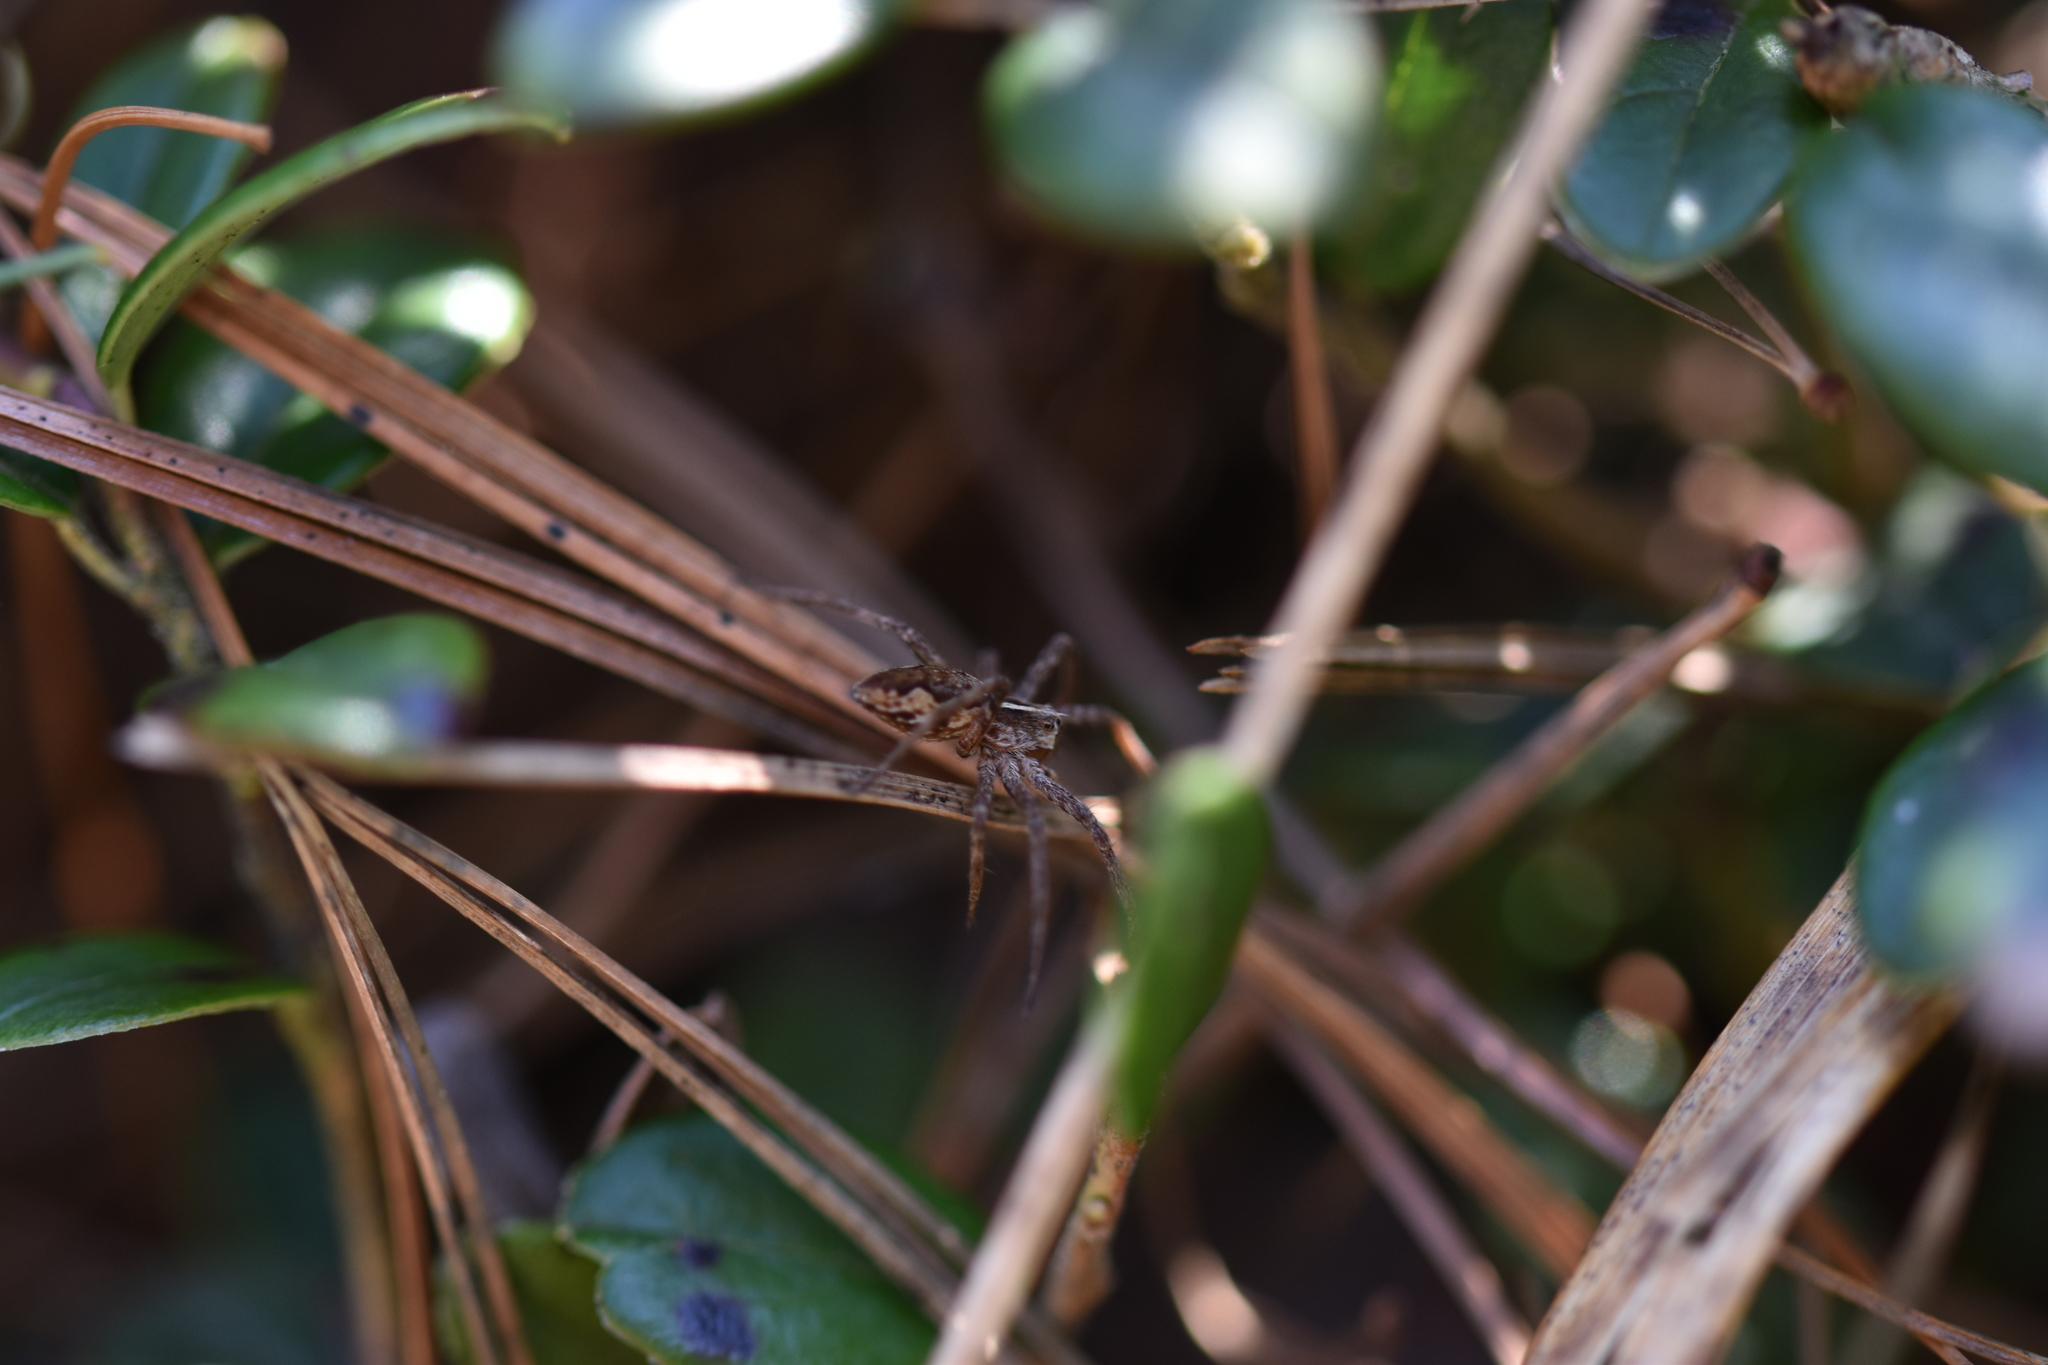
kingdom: Animalia
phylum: Arthropoda
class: Arachnida
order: Araneae
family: Pisauridae
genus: Pisaura
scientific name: Pisaura mirabilis
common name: Tent spider
